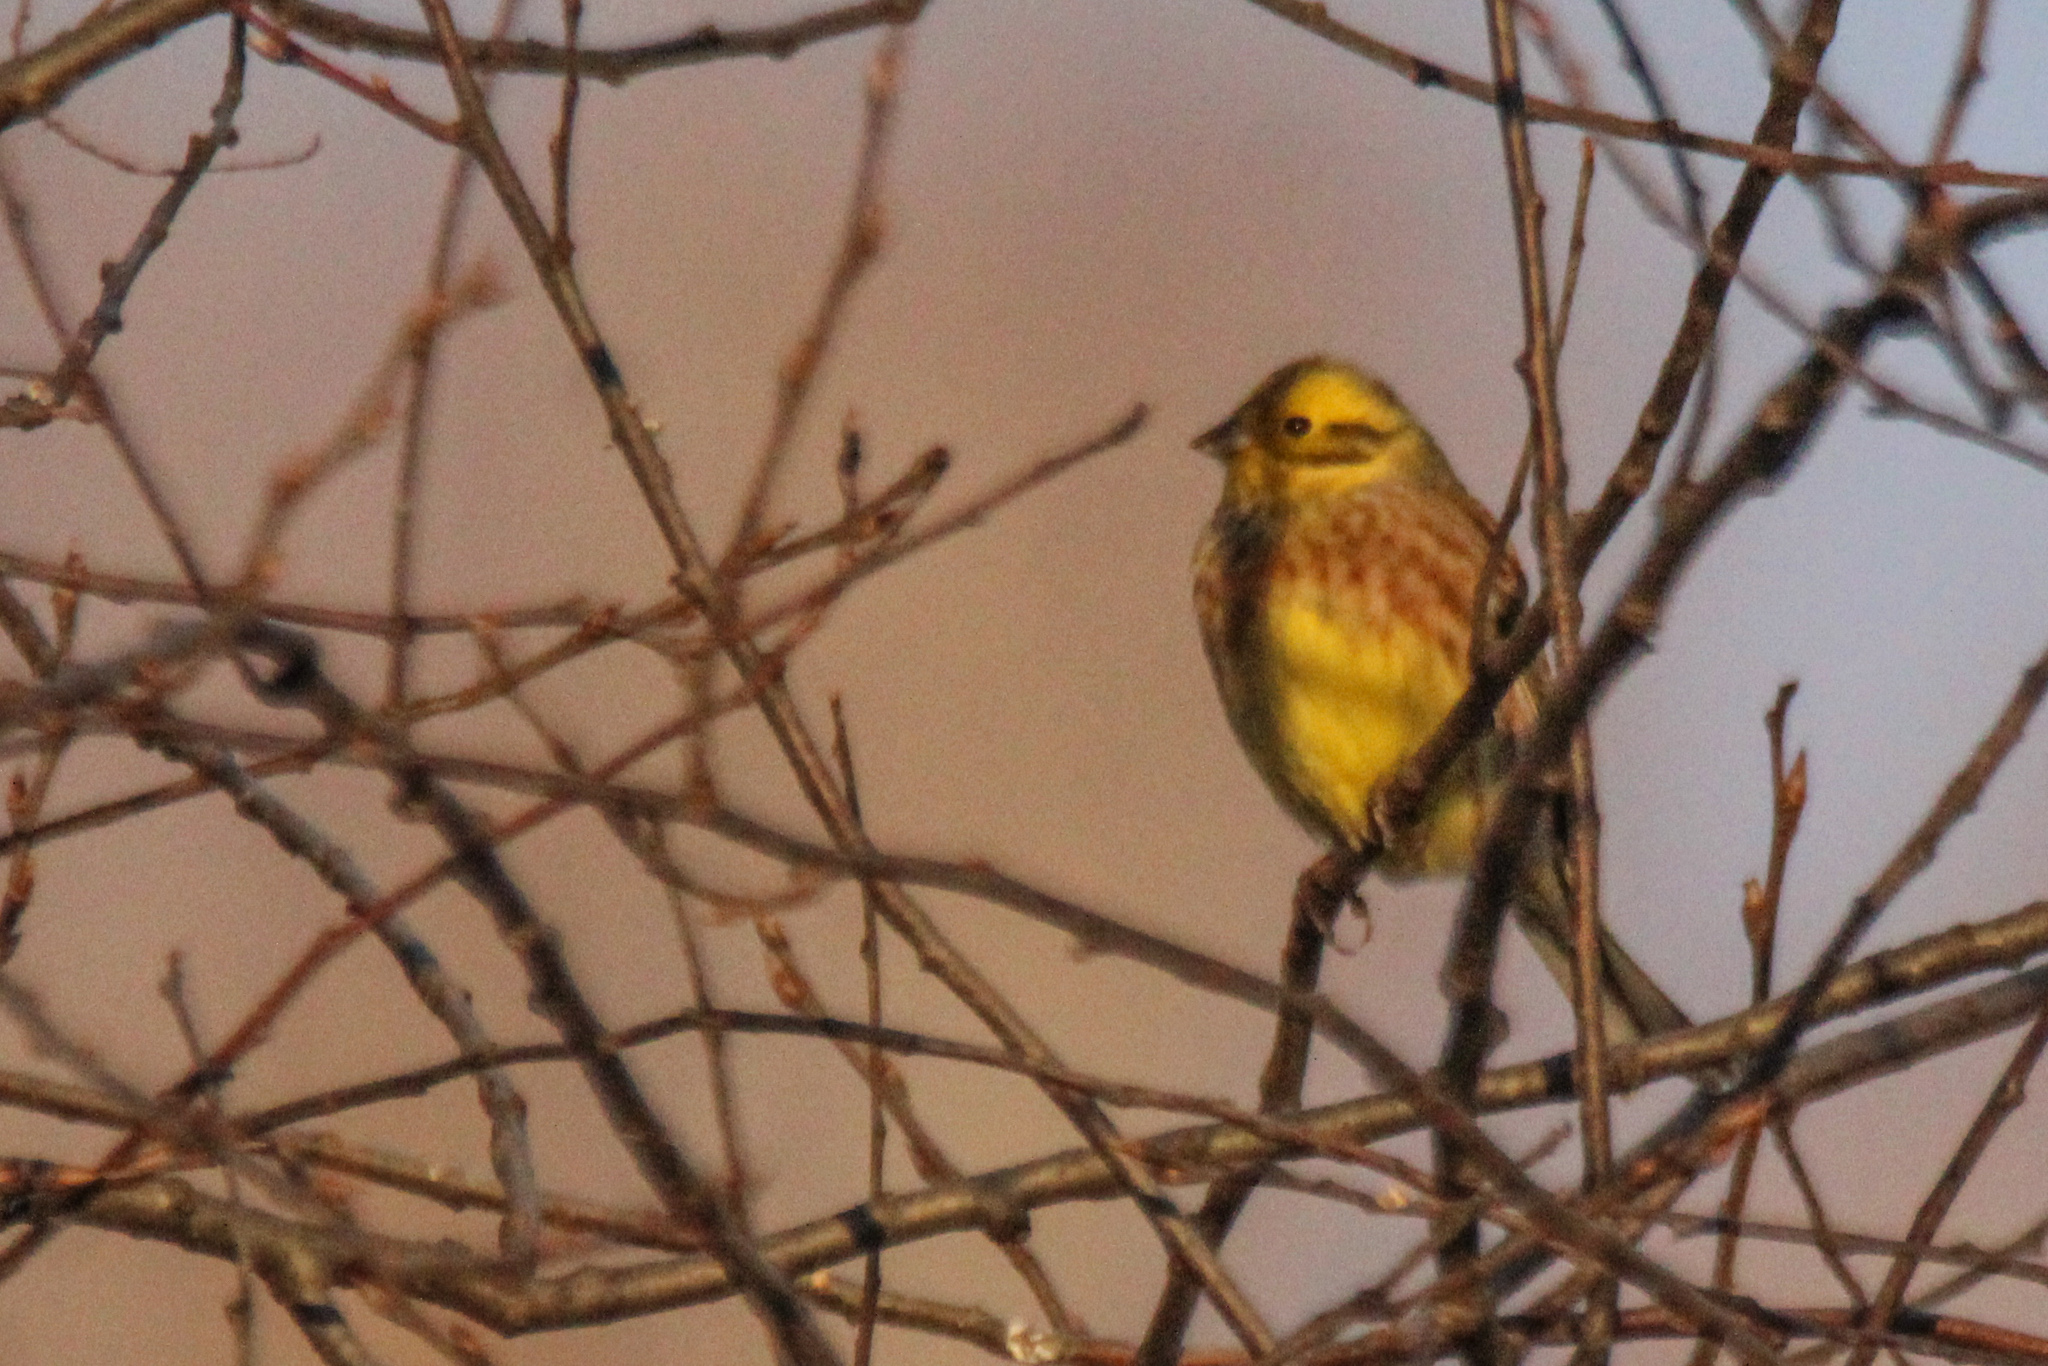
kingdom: Animalia
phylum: Chordata
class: Aves
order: Passeriformes
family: Emberizidae
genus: Emberiza
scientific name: Emberiza citrinella
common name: Yellowhammer
